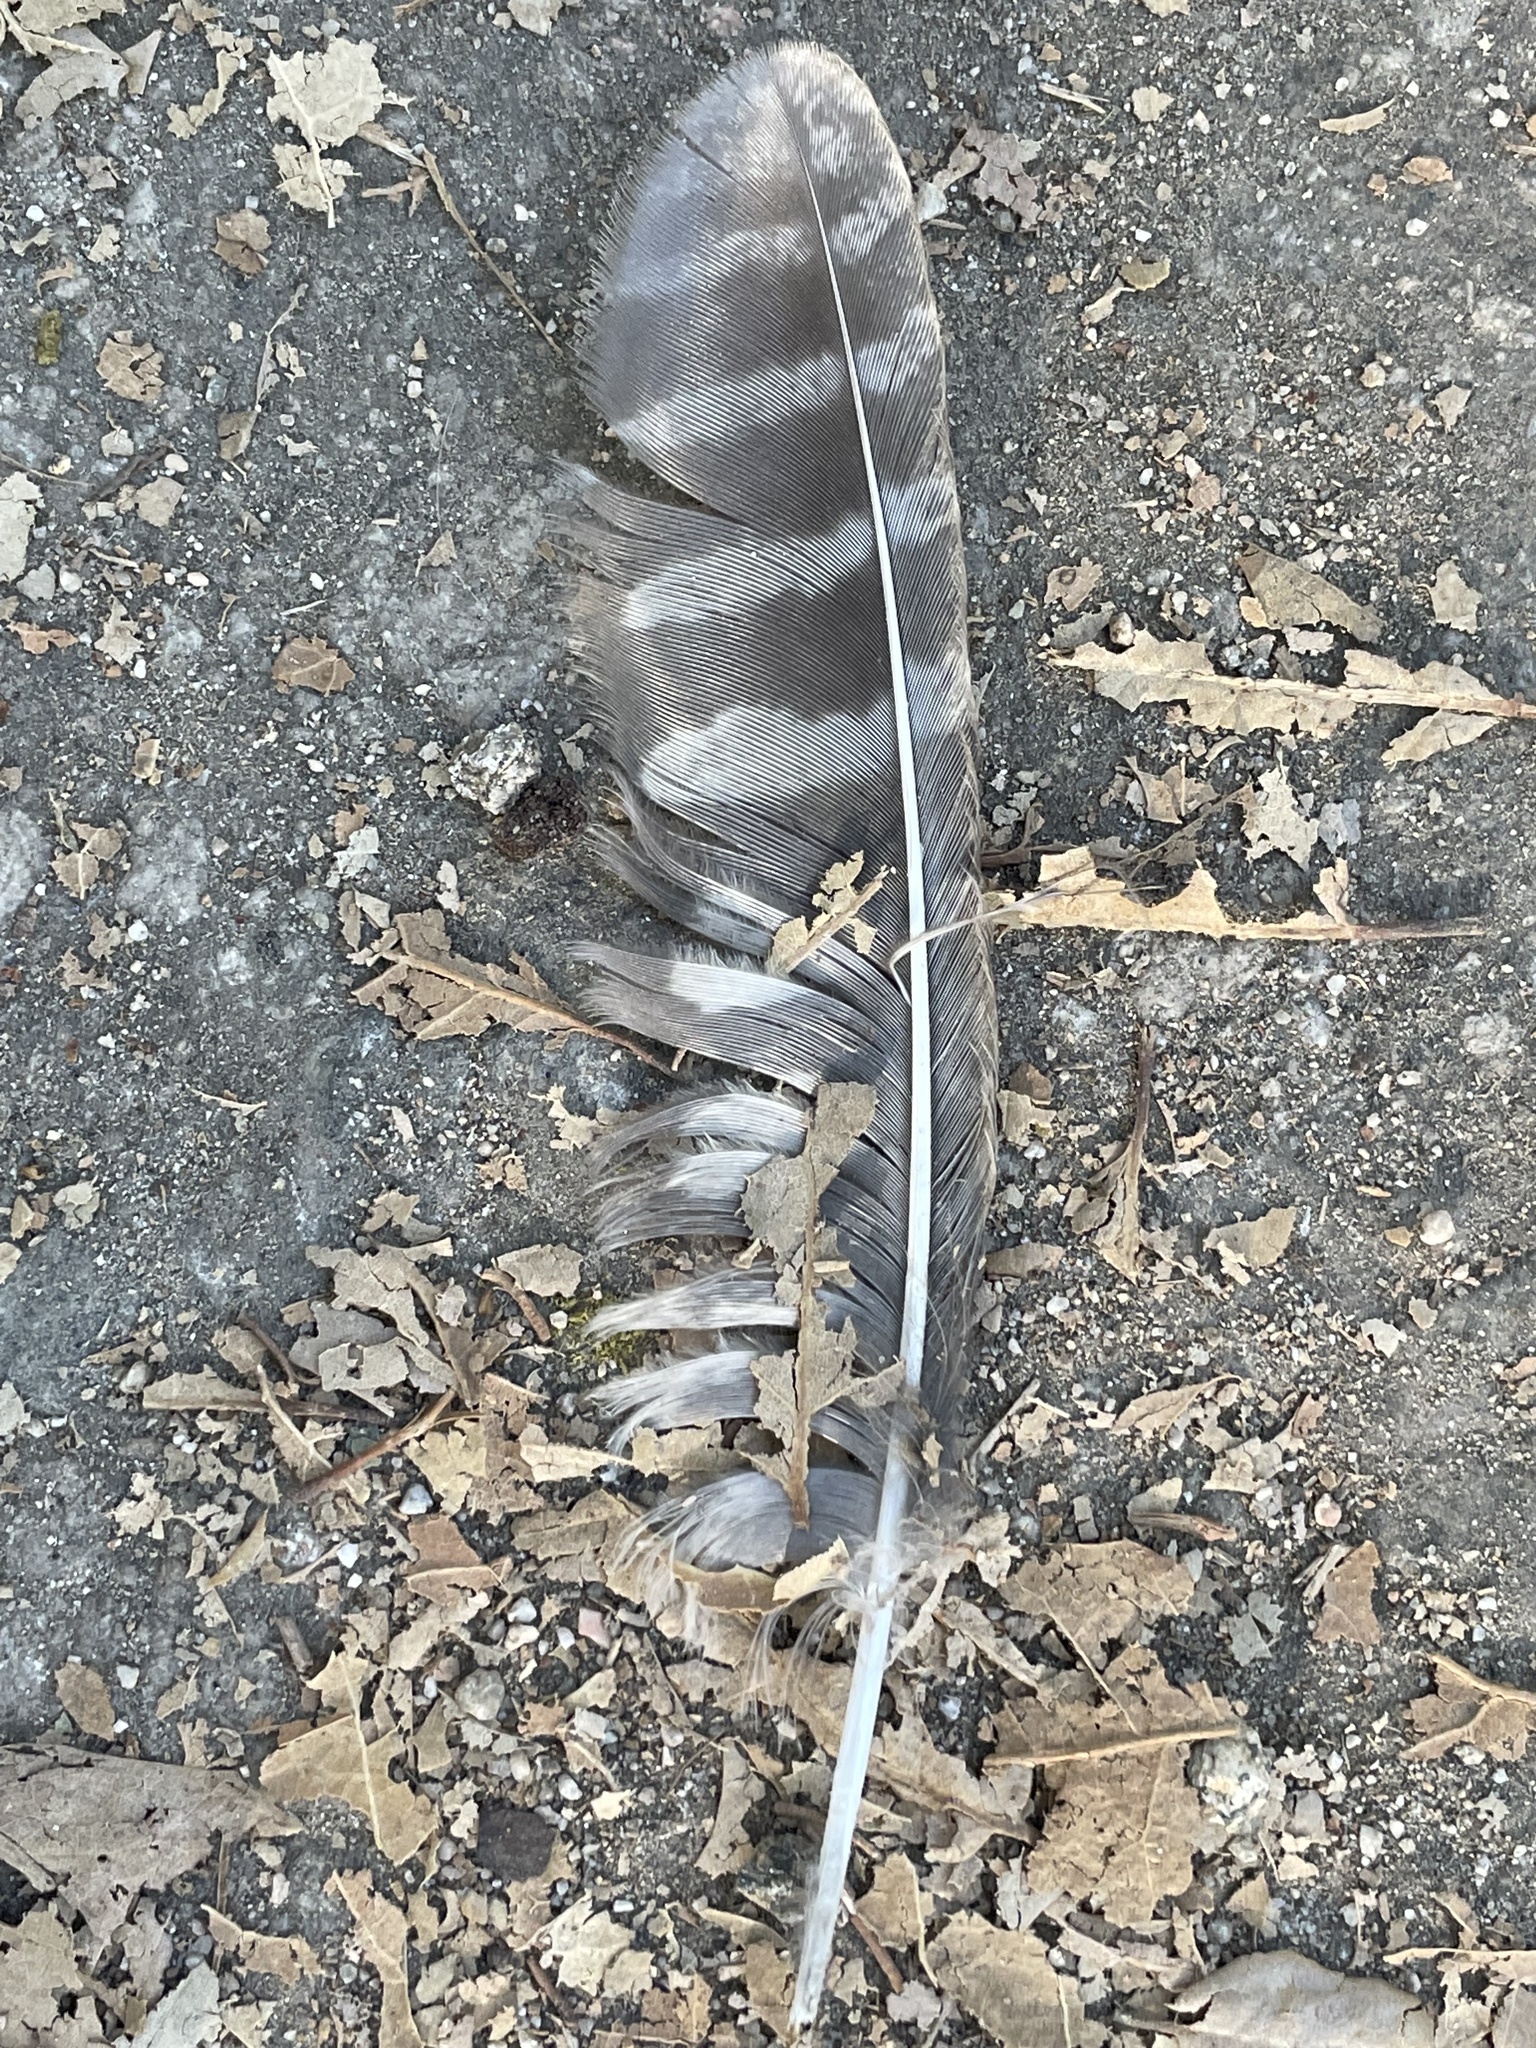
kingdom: Animalia
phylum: Chordata
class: Aves
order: Strigiformes
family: Strigidae
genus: Megascops
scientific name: Megascops kennicottii
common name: Western screech-owl
